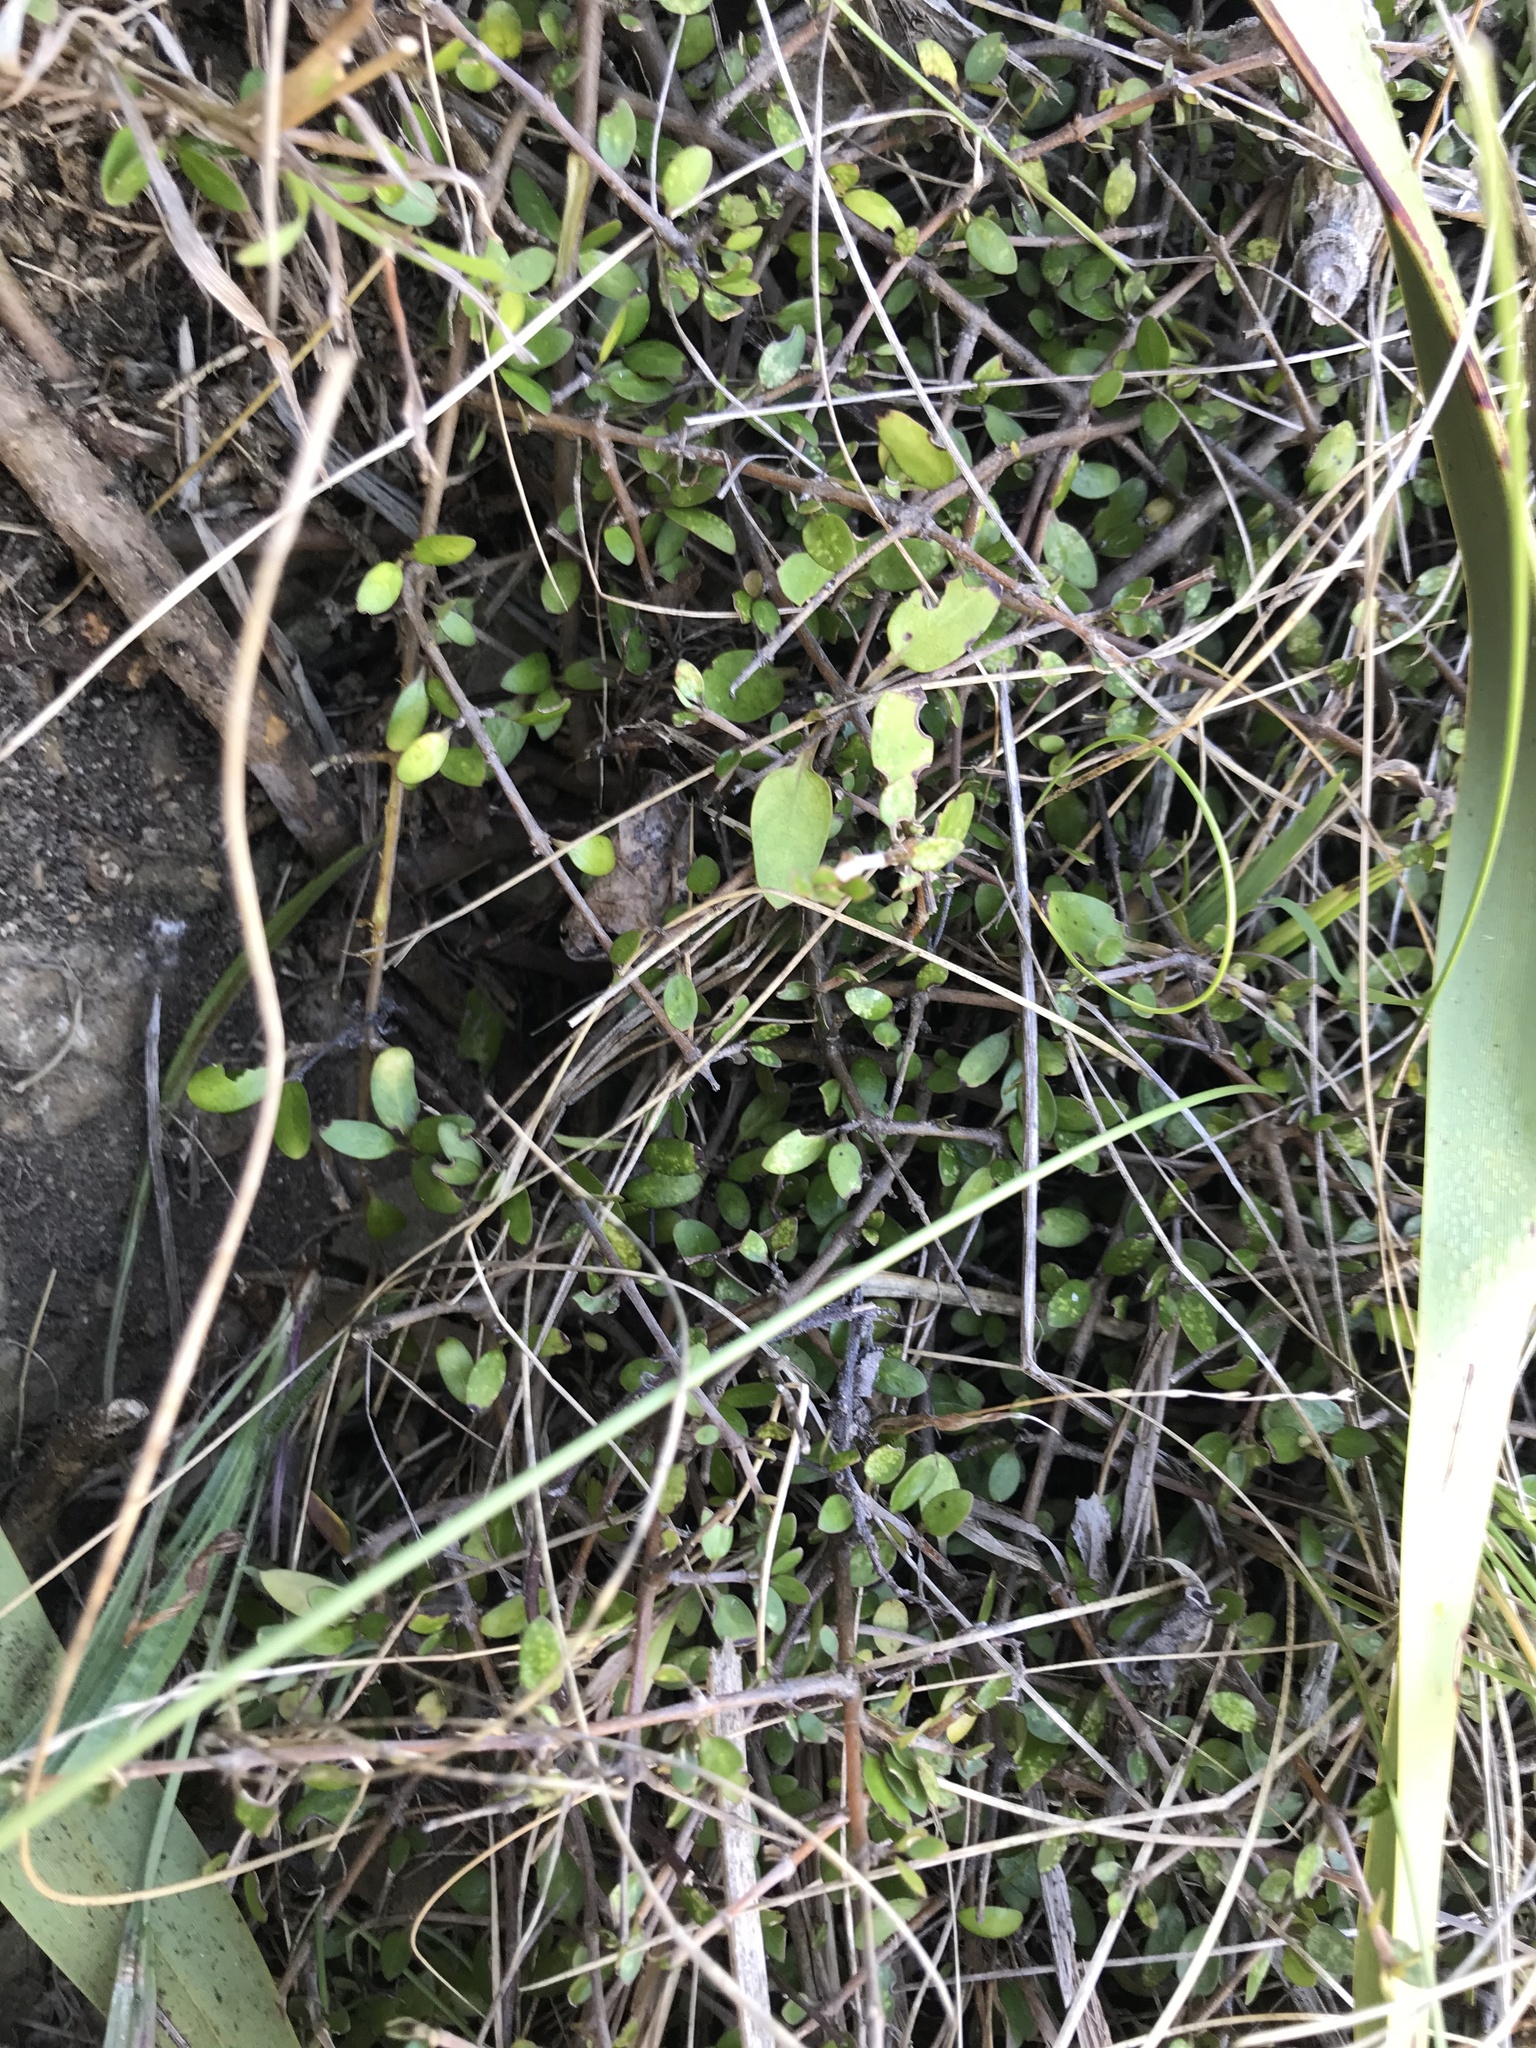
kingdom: Plantae
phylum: Tracheophyta
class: Magnoliopsida
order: Gentianales
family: Rubiaceae
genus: Coprosma
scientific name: Coprosma propinqua
